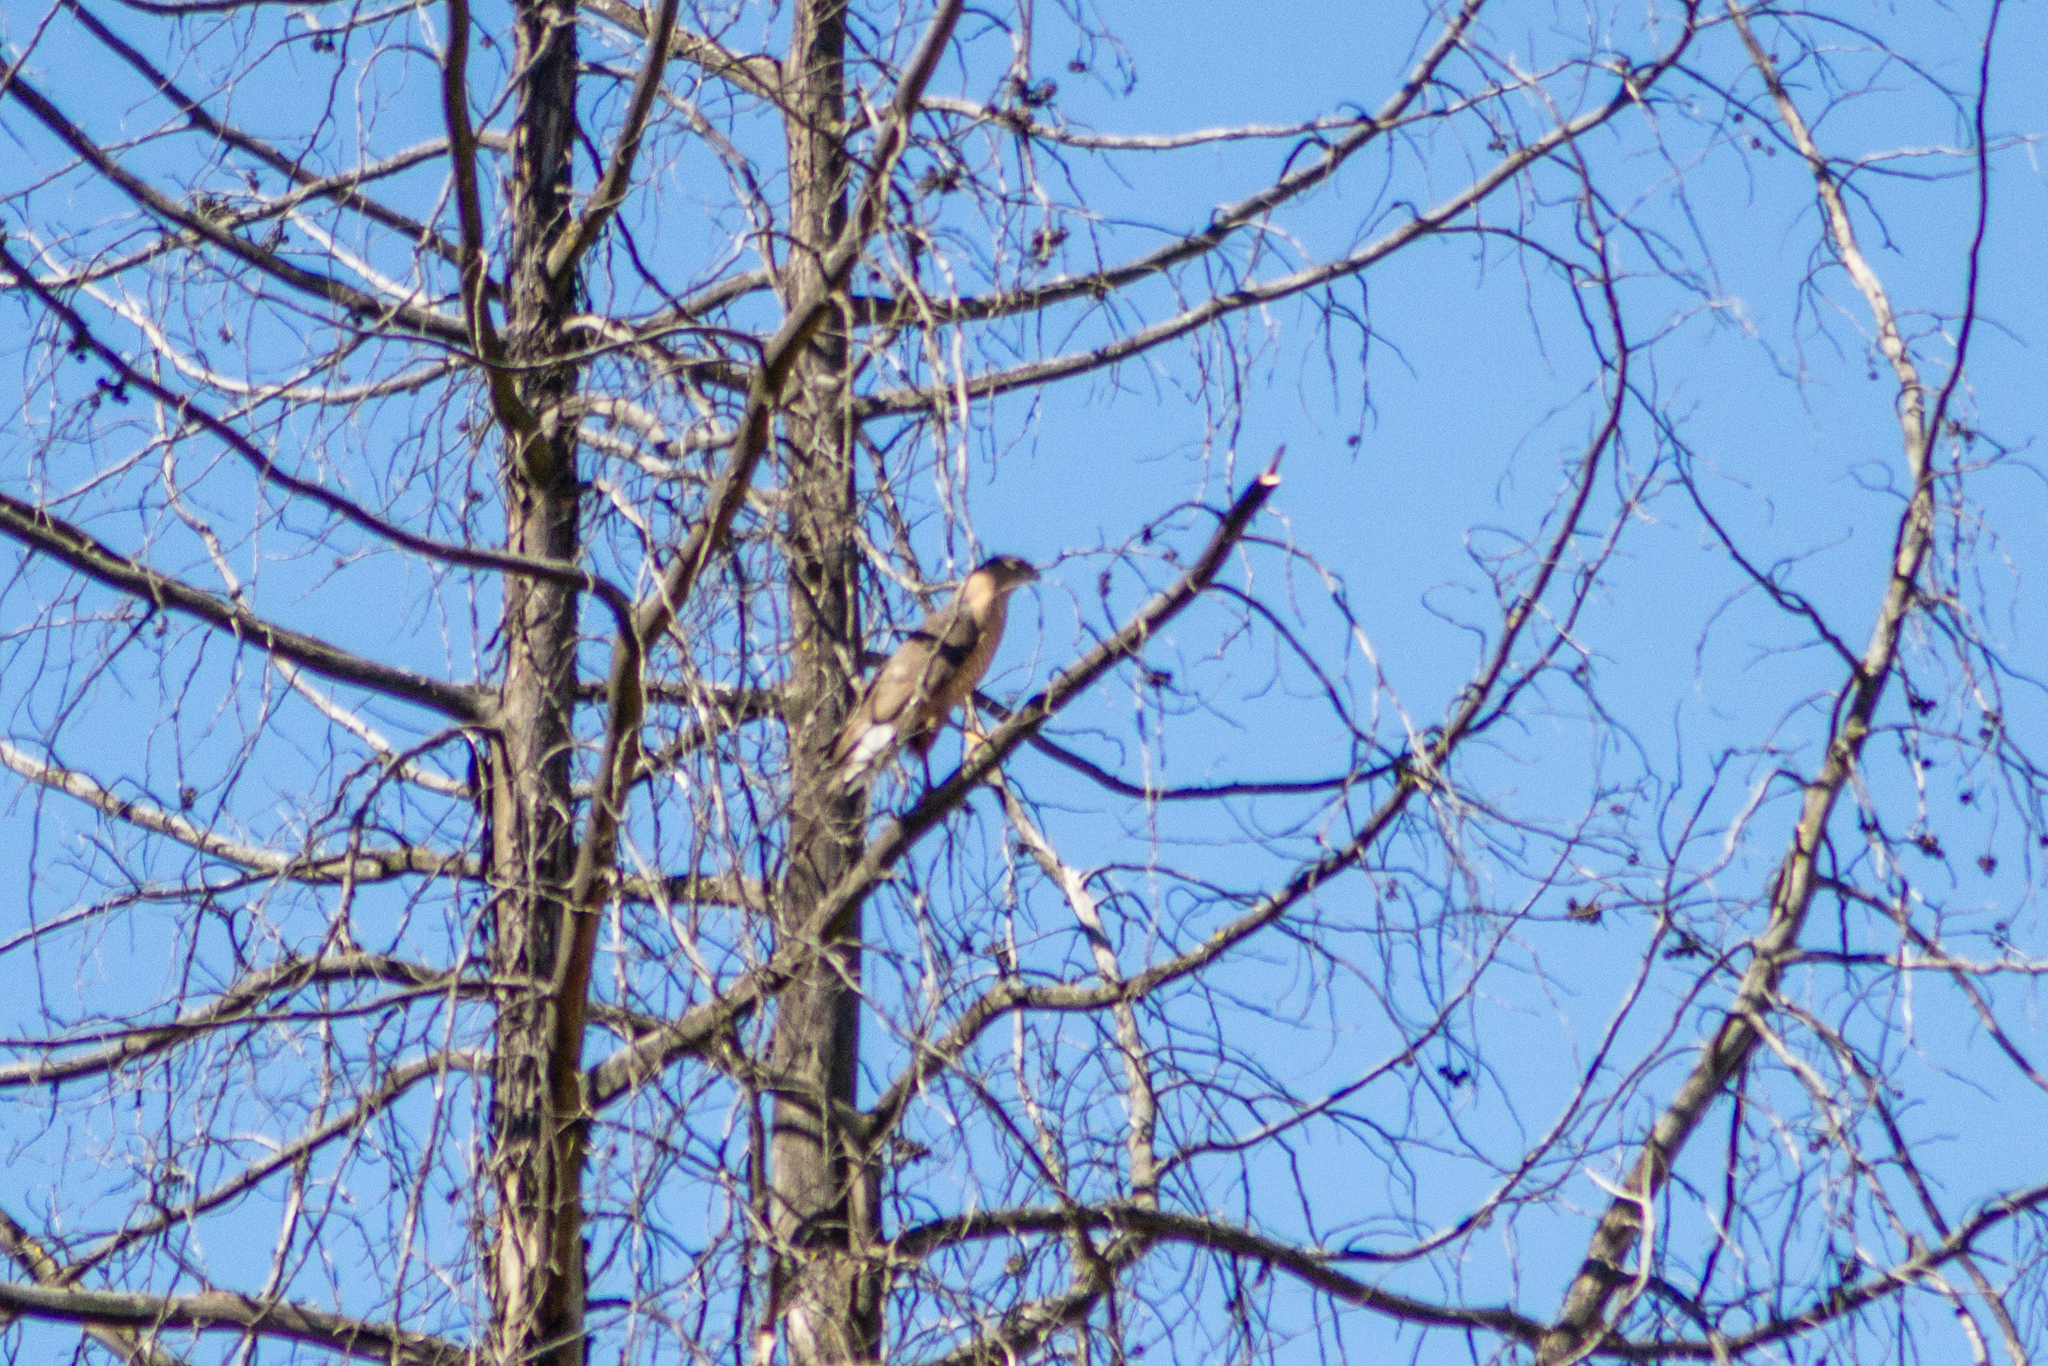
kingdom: Animalia
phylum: Chordata
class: Aves
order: Accipitriformes
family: Accipitridae
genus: Accipiter
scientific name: Accipiter cooperii
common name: Cooper's hawk
